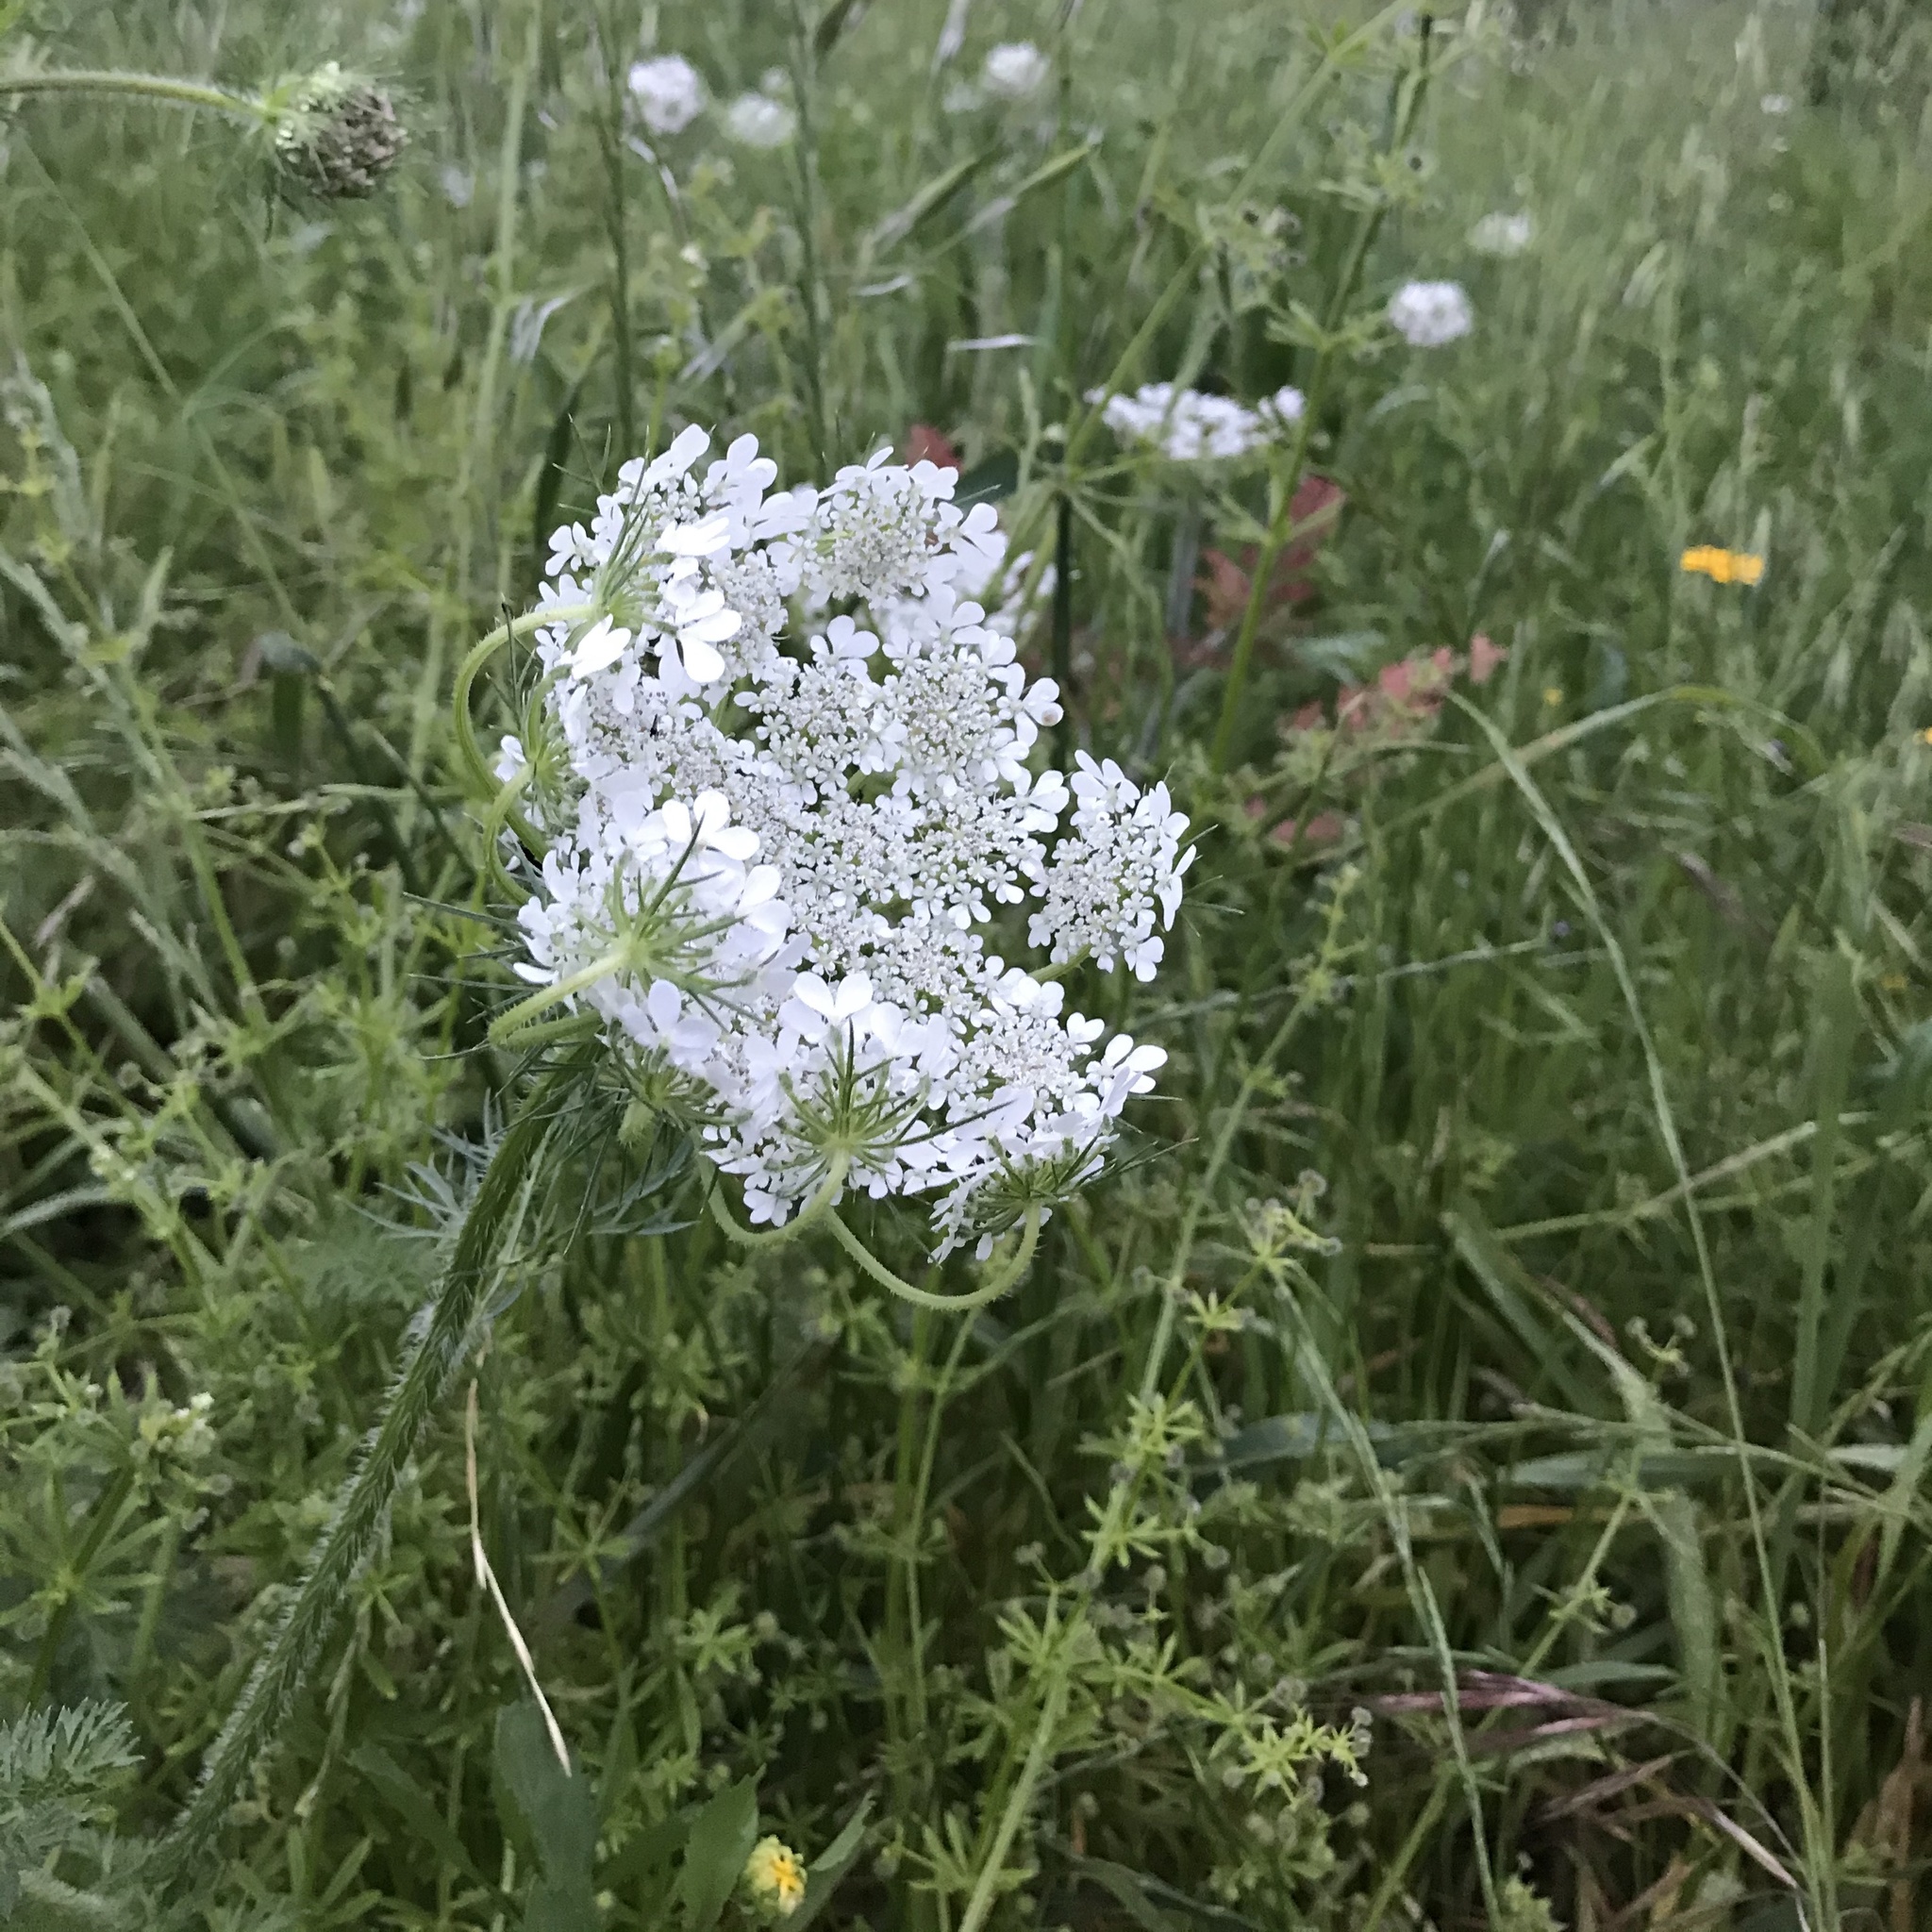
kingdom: Plantae
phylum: Tracheophyta
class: Magnoliopsida
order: Apiales
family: Apiaceae
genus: Daucus
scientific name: Daucus carota
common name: Wild carrot
